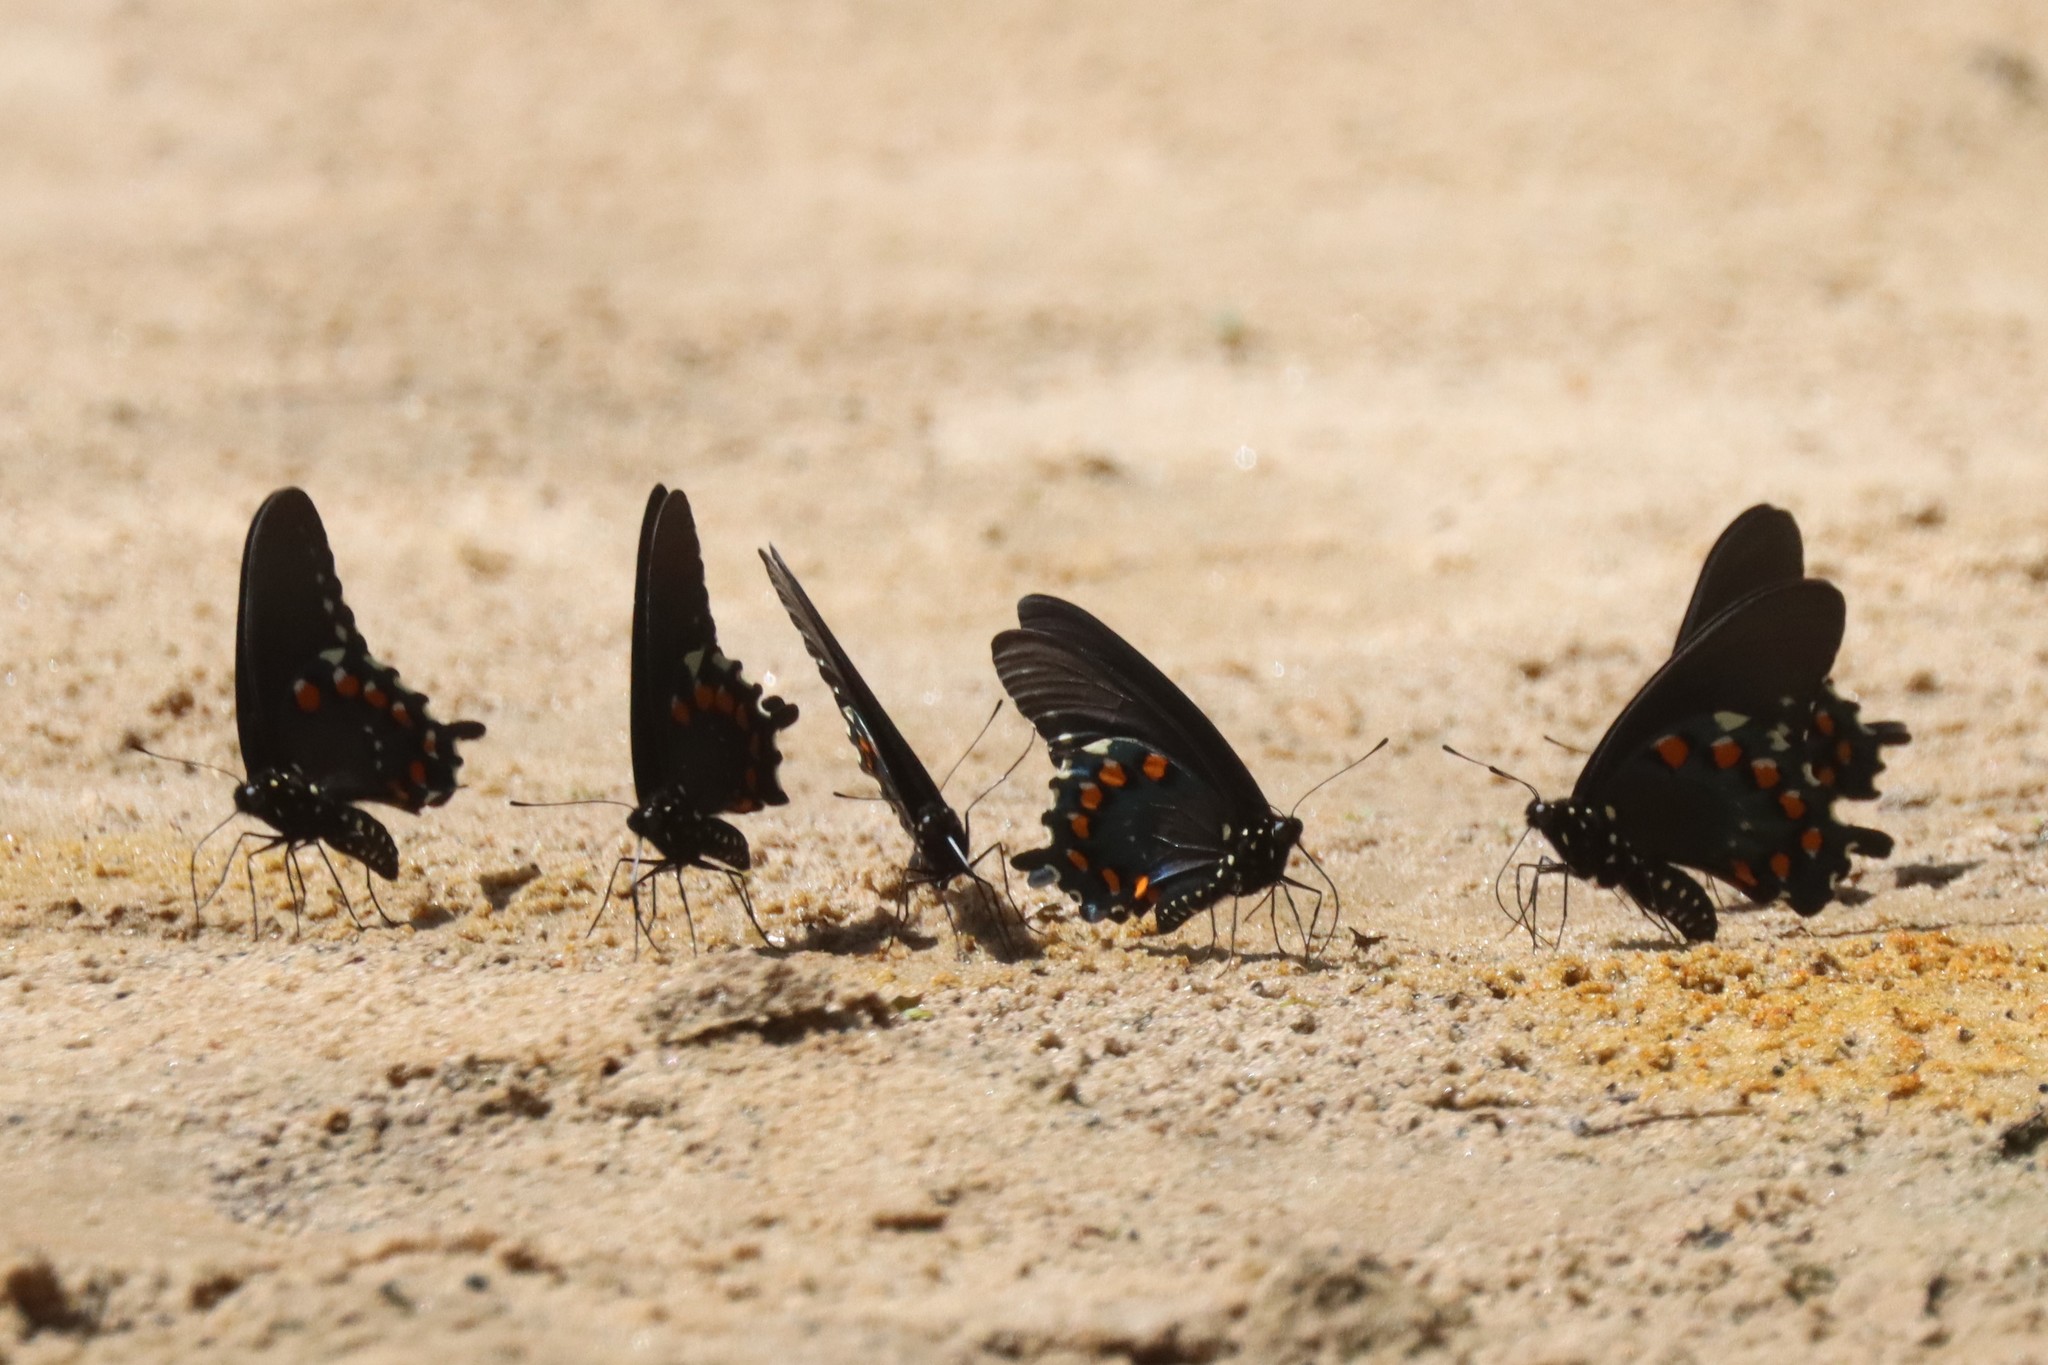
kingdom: Animalia
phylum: Arthropoda
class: Insecta
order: Lepidoptera
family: Papilionidae
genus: Battus
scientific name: Battus philenor
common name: Pipevine swallowtail
